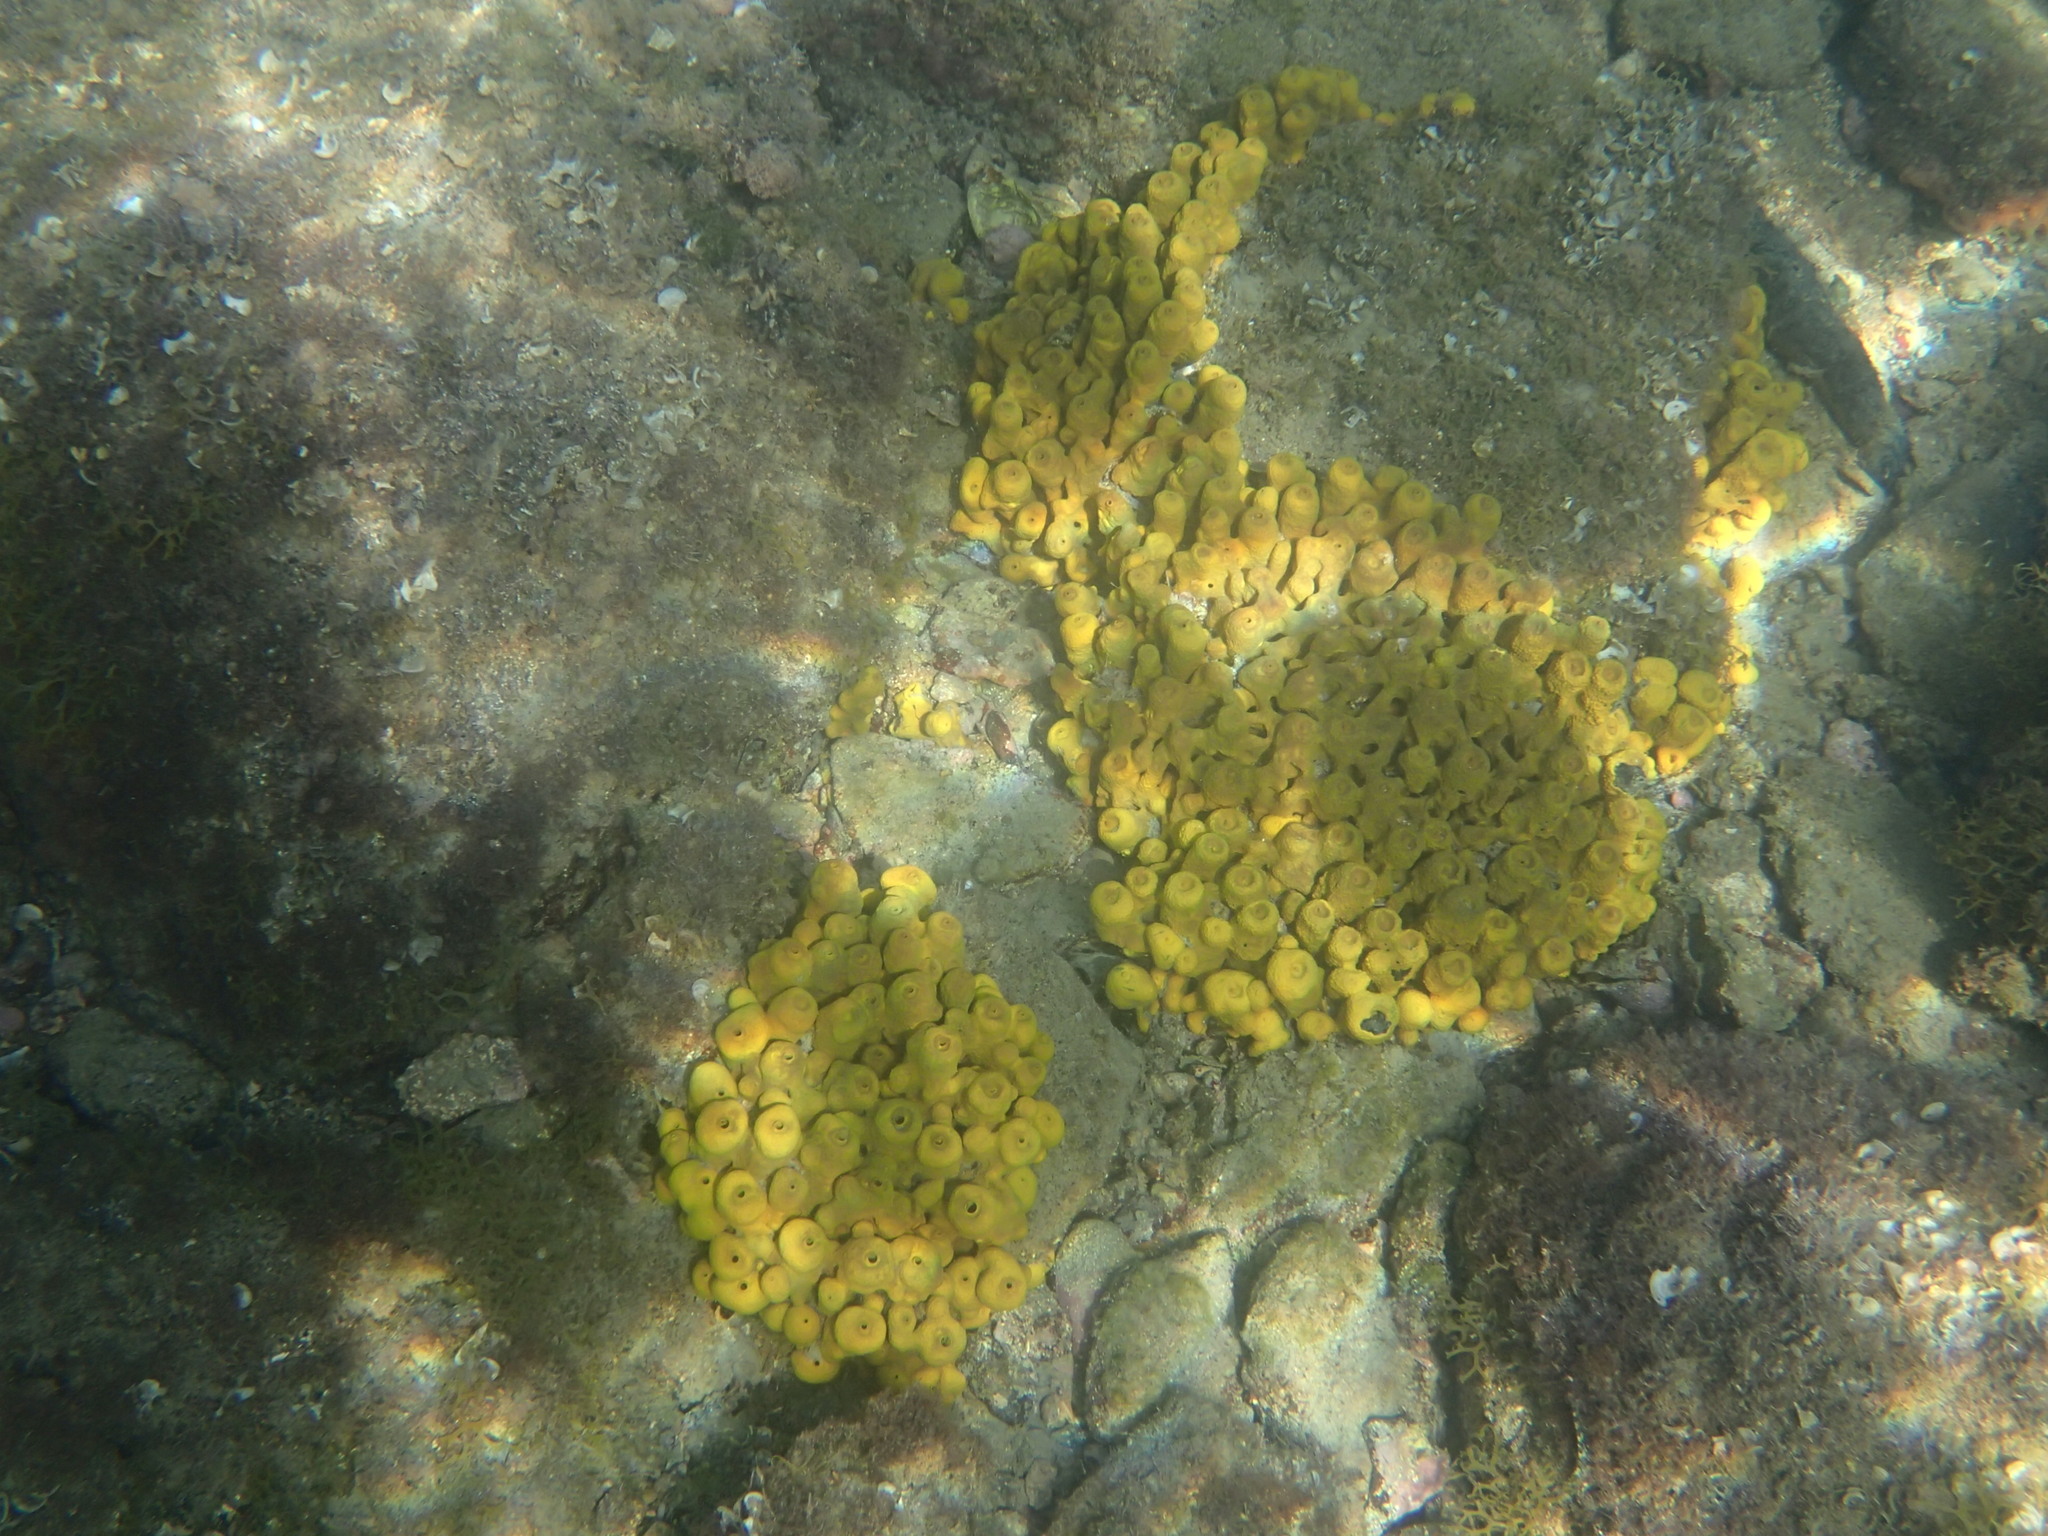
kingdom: Animalia
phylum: Porifera
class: Demospongiae
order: Verongiida
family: Aplysinidae
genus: Aplysina
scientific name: Aplysina aerophoba
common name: Aureate sponge
